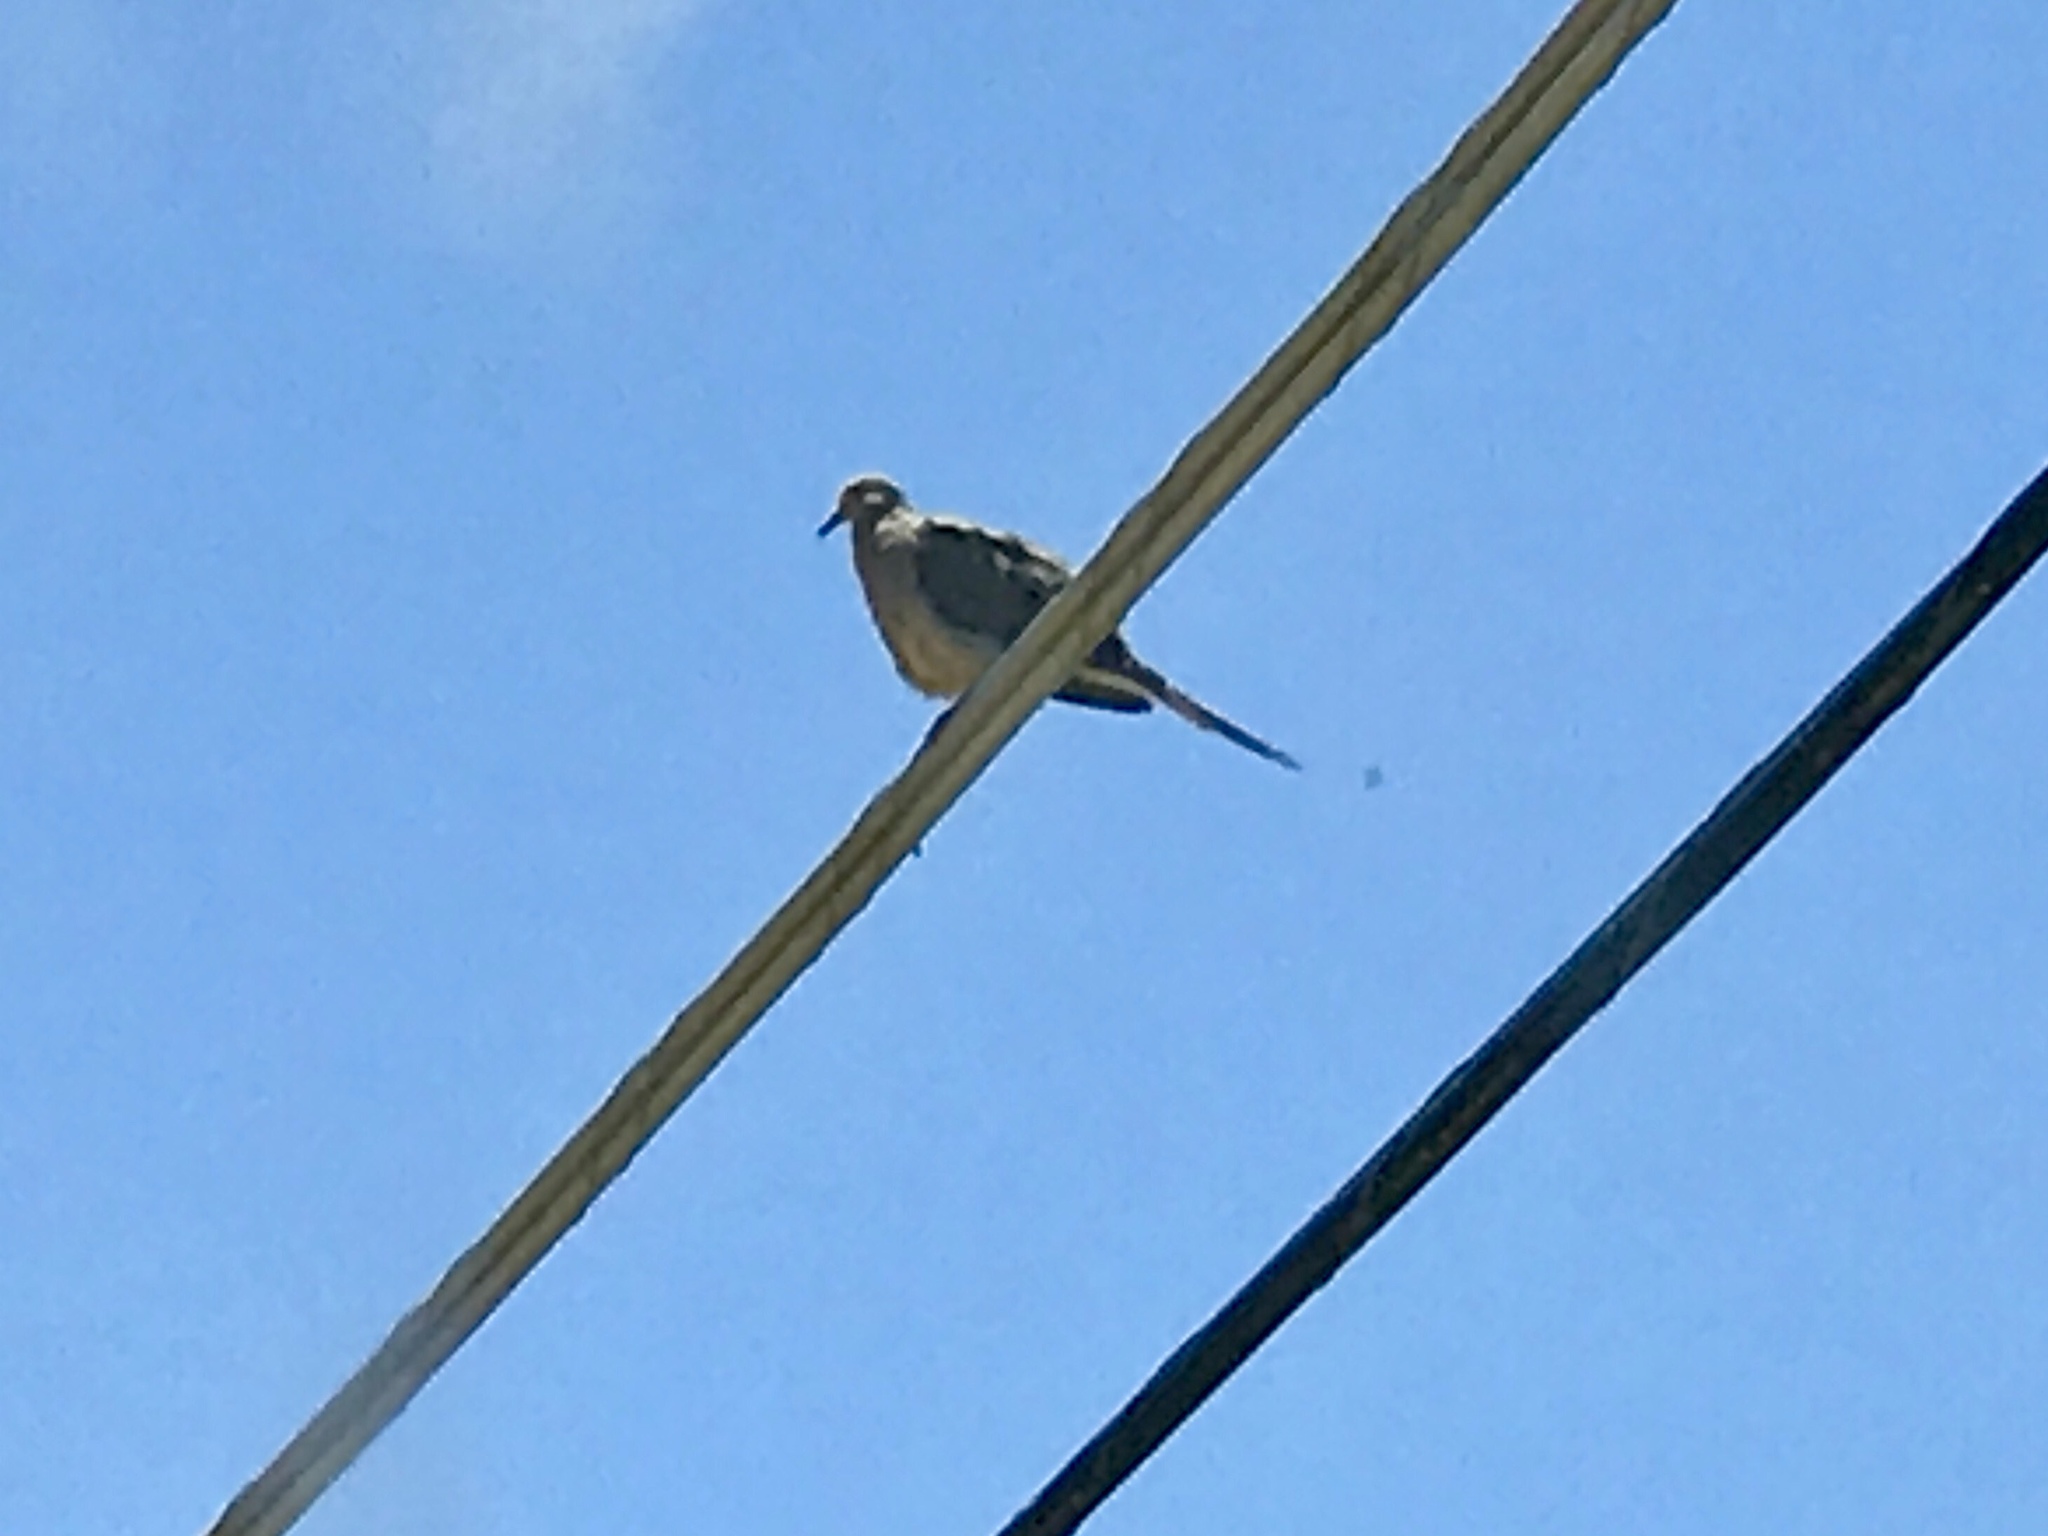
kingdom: Animalia
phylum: Chordata
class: Aves
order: Columbiformes
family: Columbidae
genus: Zenaida
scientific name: Zenaida macroura
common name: Mourning dove
